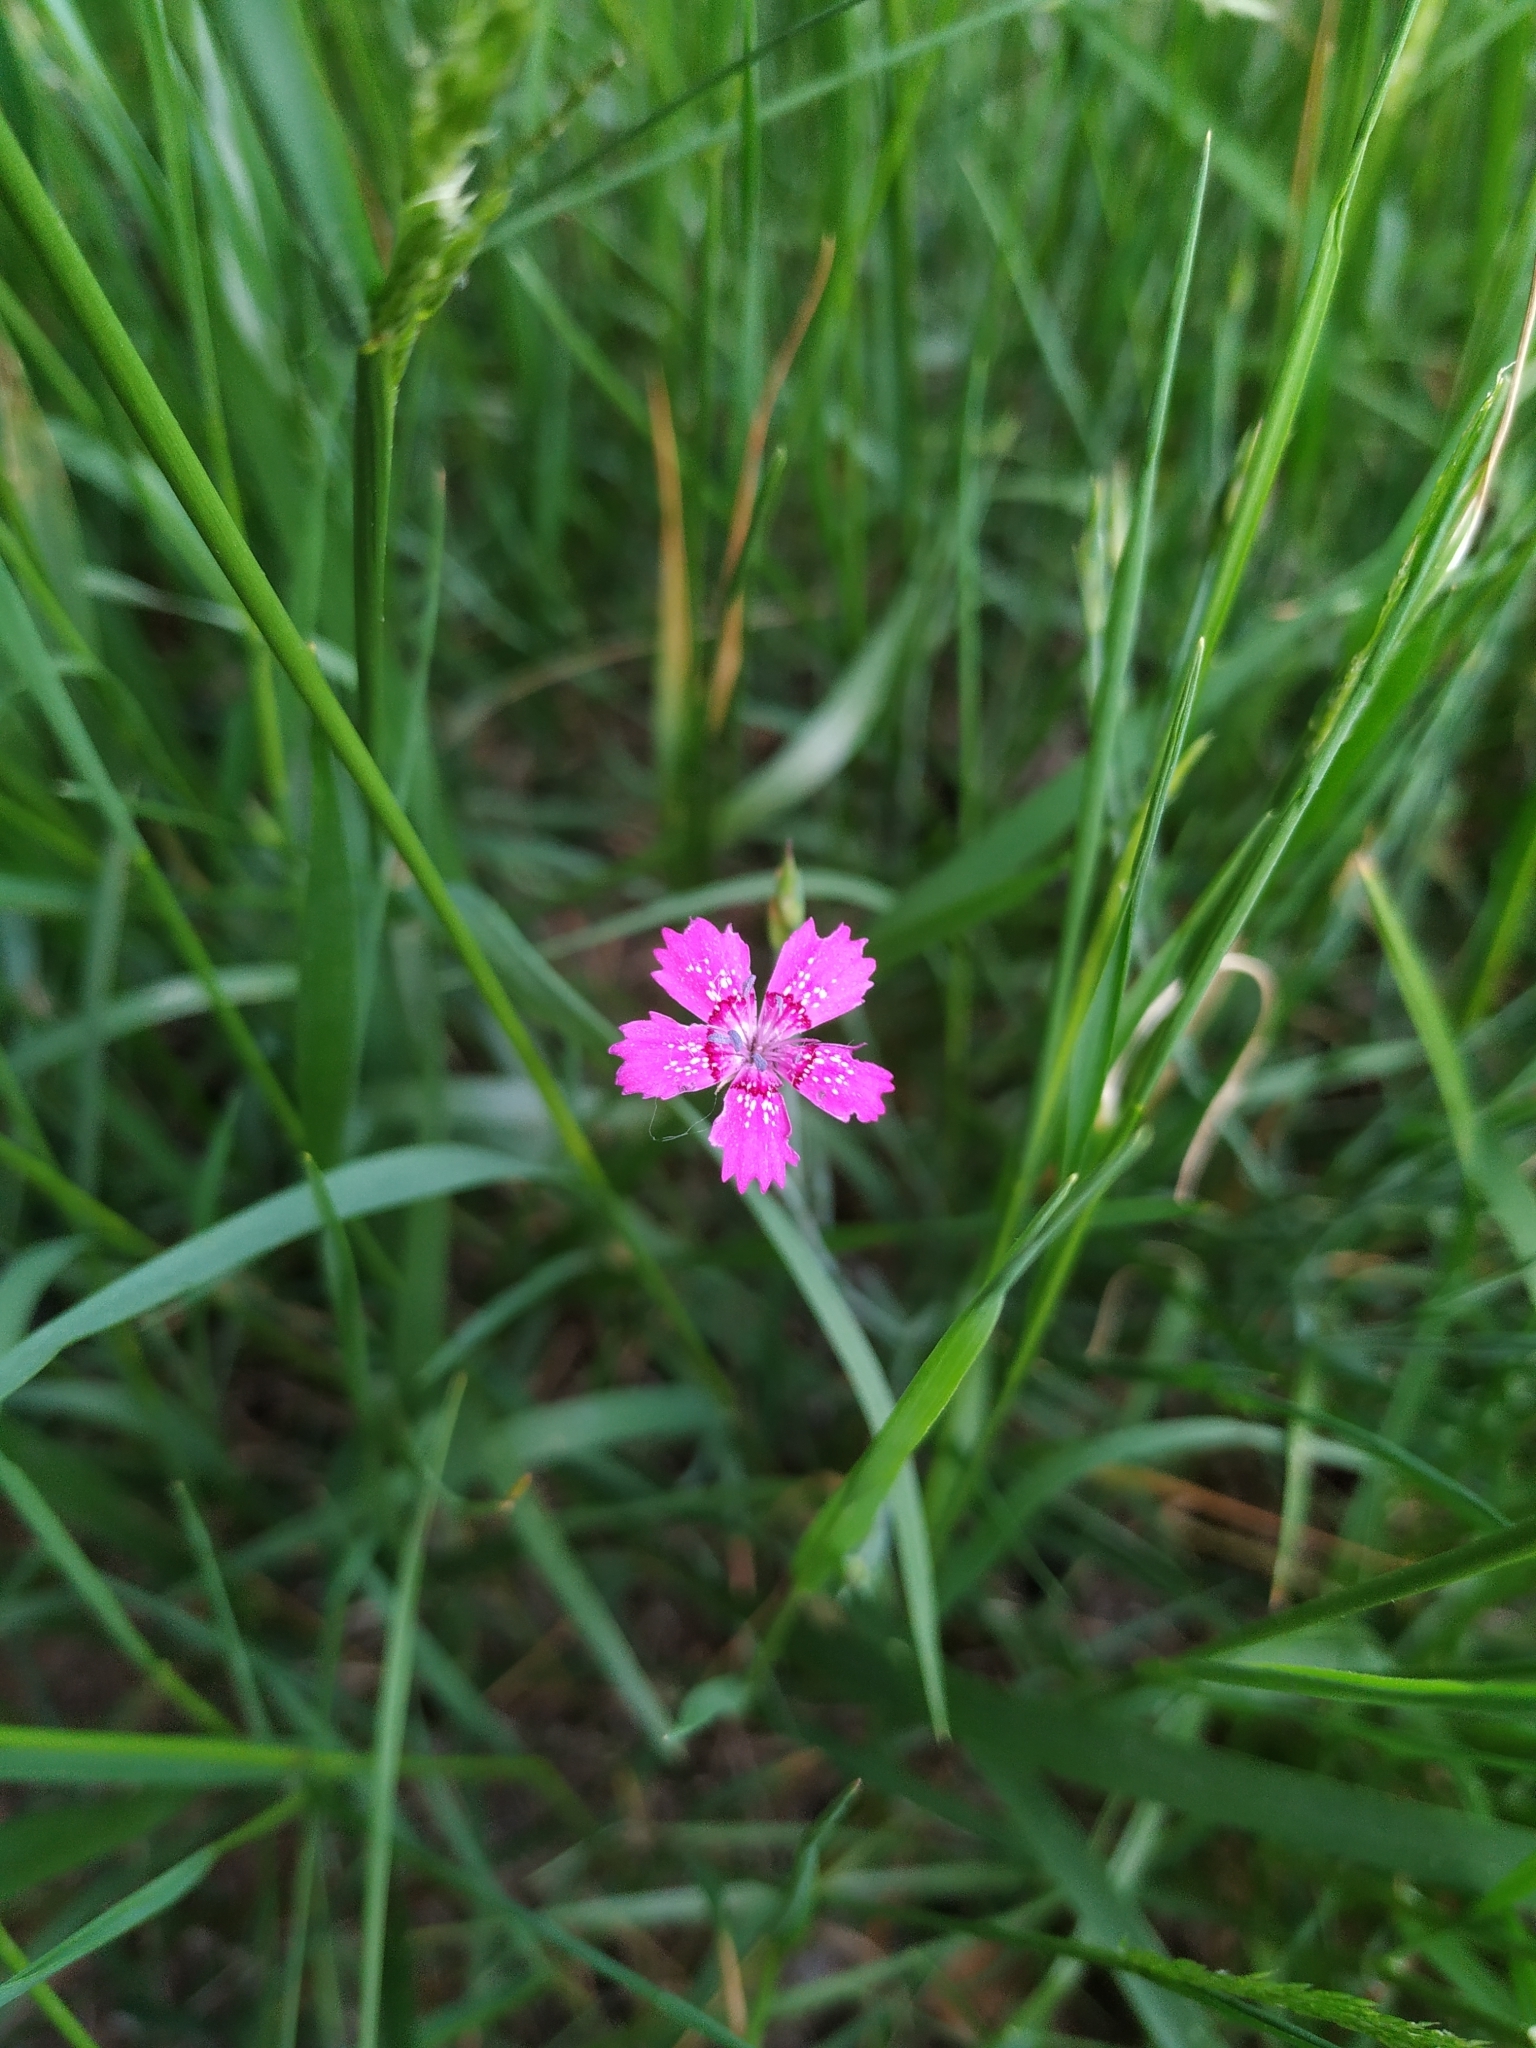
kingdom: Plantae
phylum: Tracheophyta
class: Magnoliopsida
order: Caryophyllales
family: Caryophyllaceae
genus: Dianthus
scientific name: Dianthus deltoides
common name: Maiden pink
